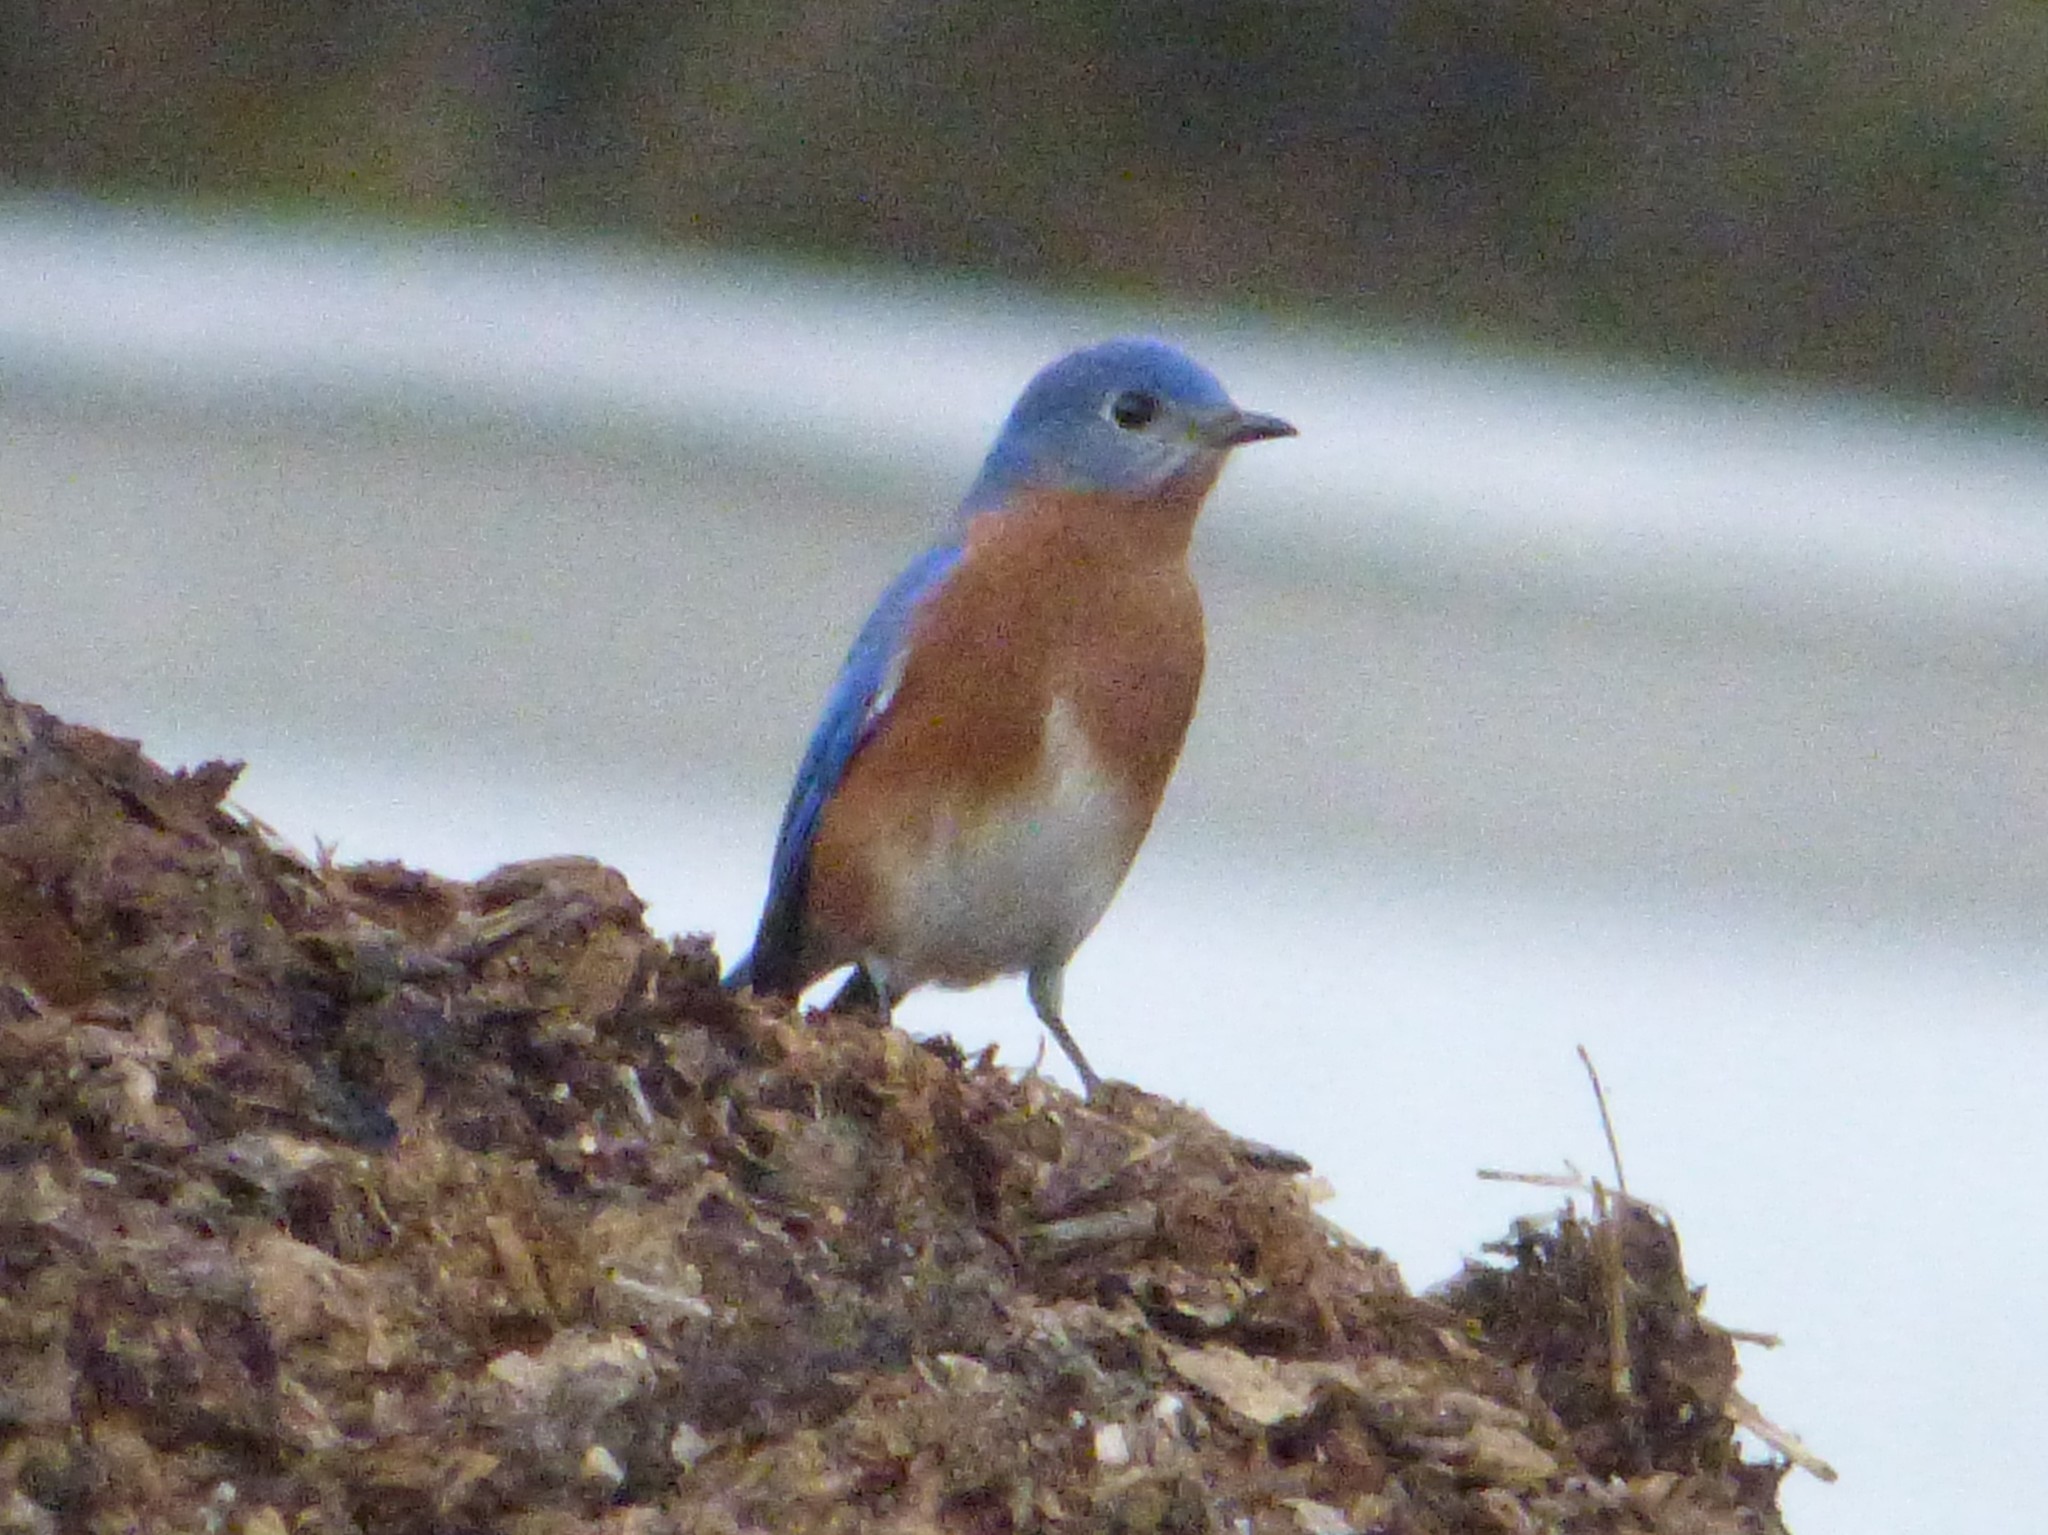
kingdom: Animalia
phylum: Chordata
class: Aves
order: Passeriformes
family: Turdidae
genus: Sialia
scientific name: Sialia sialis
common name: Eastern bluebird
